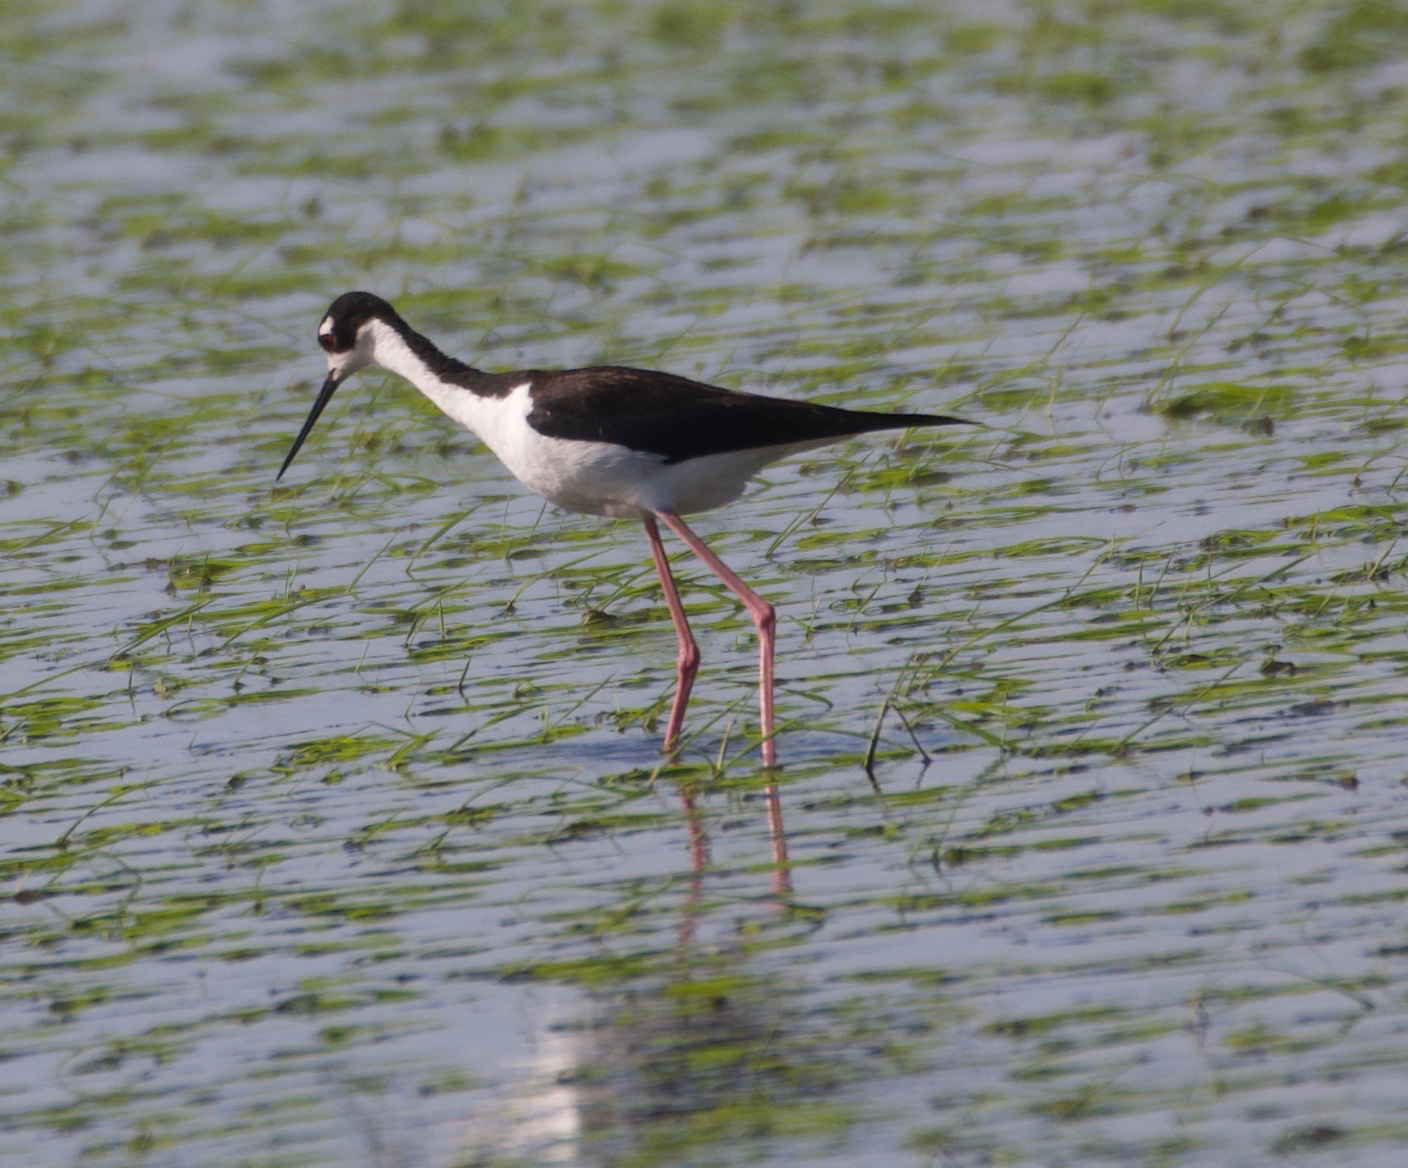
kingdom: Animalia
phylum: Chordata
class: Aves
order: Charadriiformes
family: Recurvirostridae
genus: Himantopus
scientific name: Himantopus mexicanus
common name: Black-necked stilt
